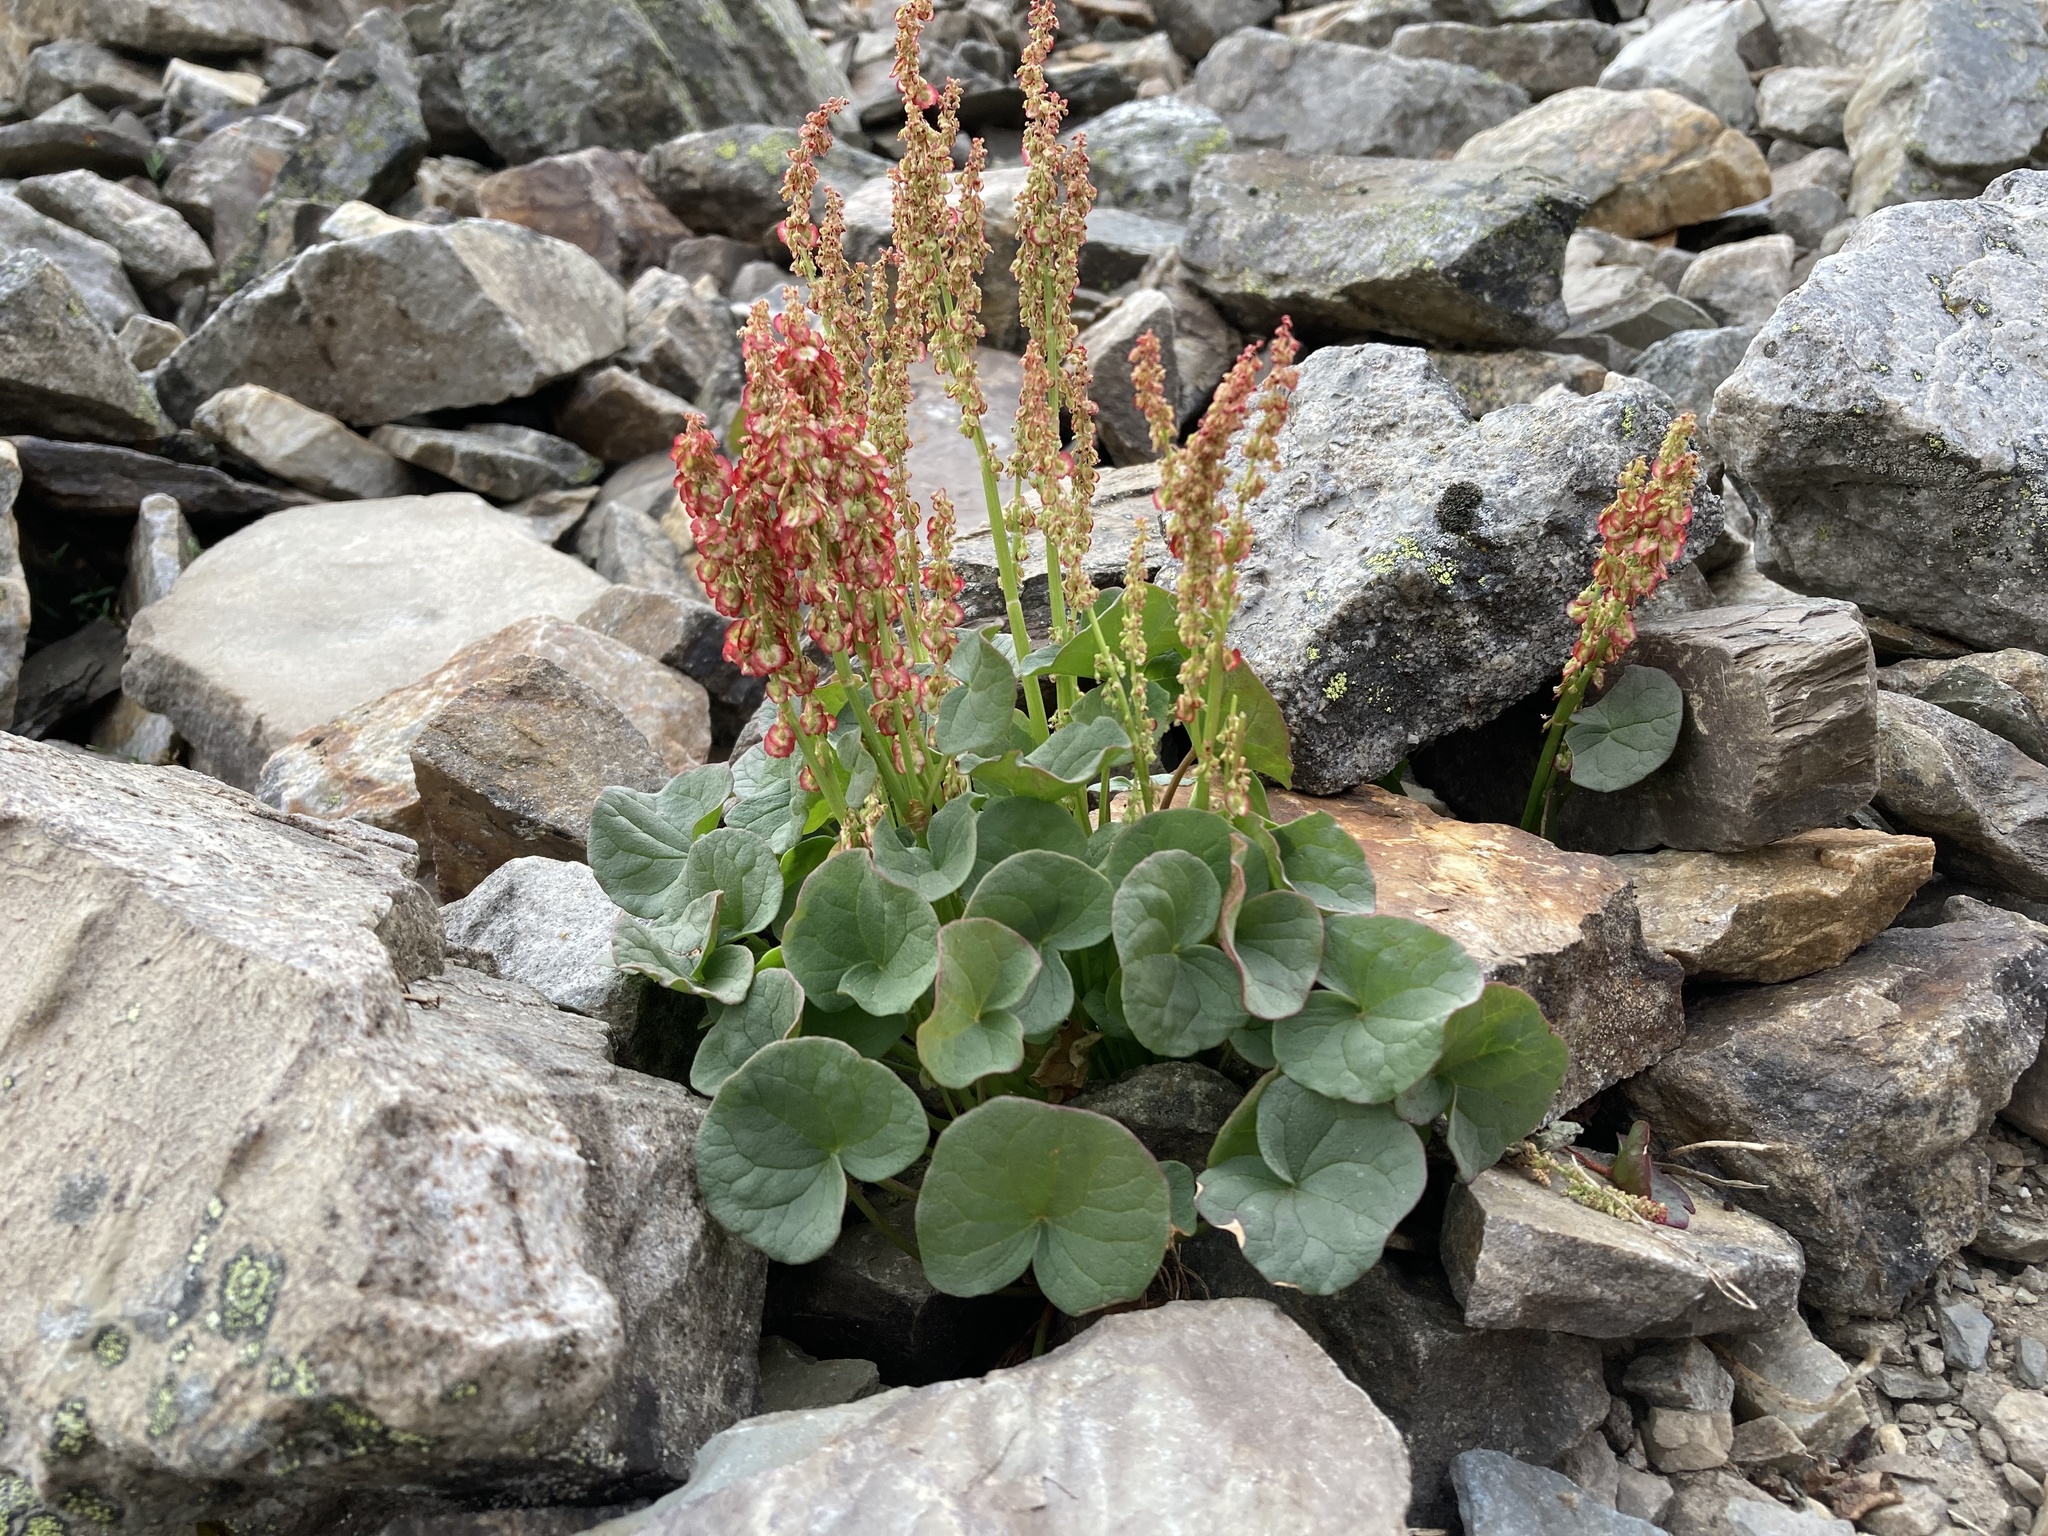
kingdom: Plantae
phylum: Tracheophyta
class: Magnoliopsida
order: Caryophyllales
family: Polygonaceae
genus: Oxyria
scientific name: Oxyria digyna
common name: Alpine mountain-sorrel
